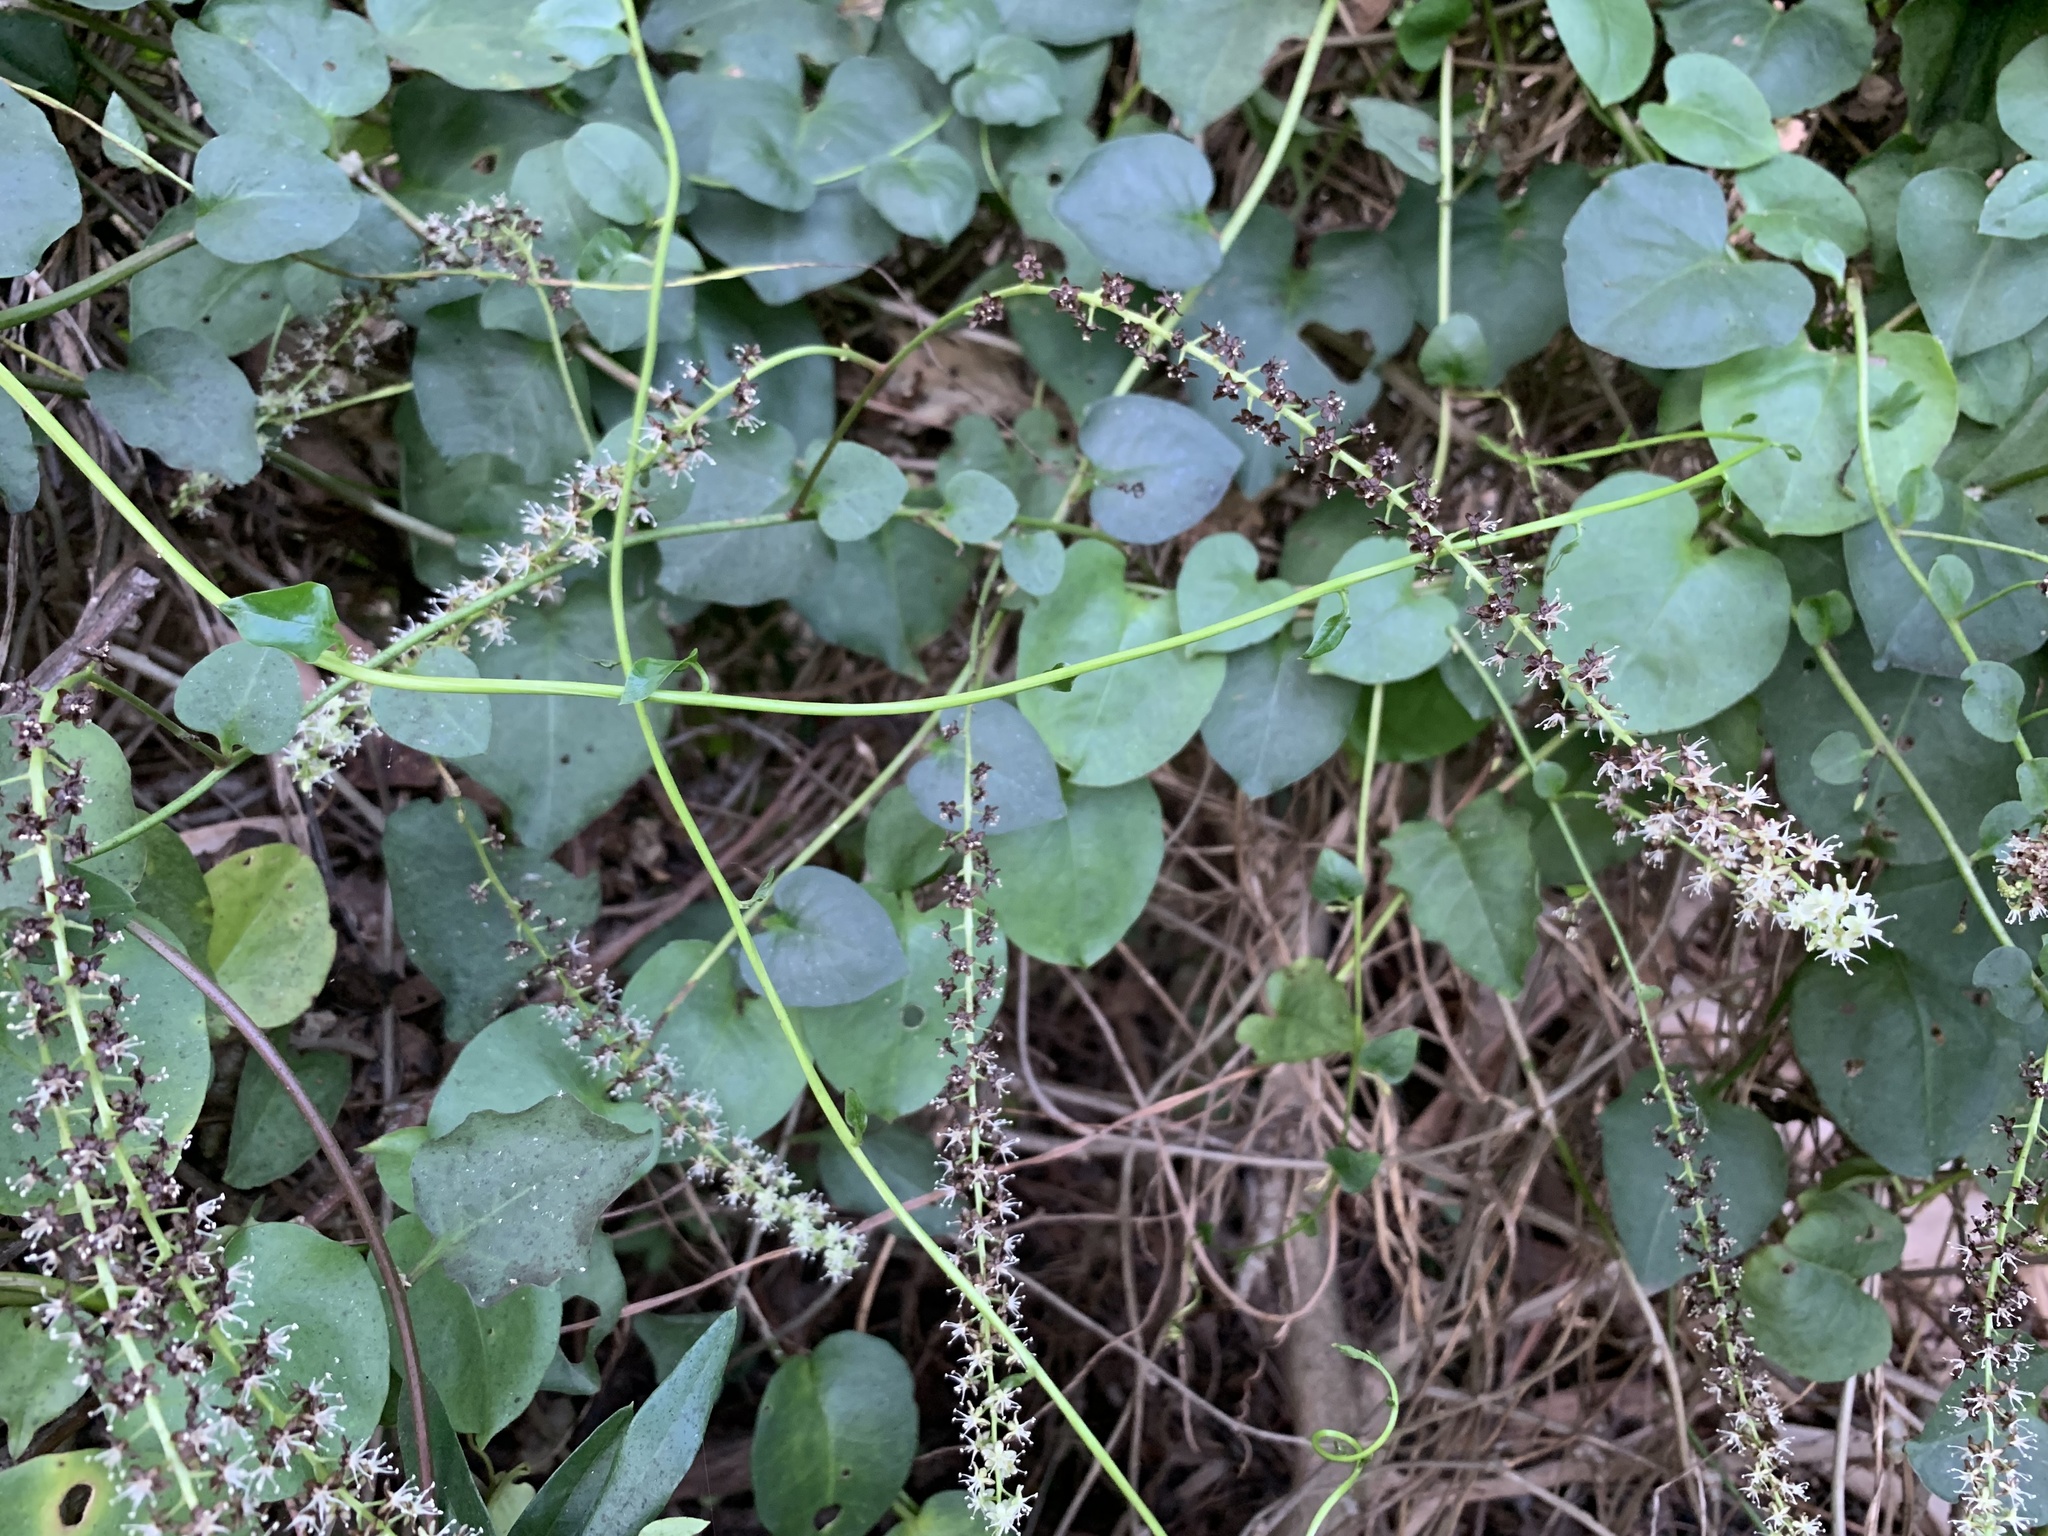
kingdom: Plantae
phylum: Tracheophyta
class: Magnoliopsida
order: Caryophyllales
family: Basellaceae
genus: Anredera
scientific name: Anredera cordifolia
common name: Heartleaf madeiravine
